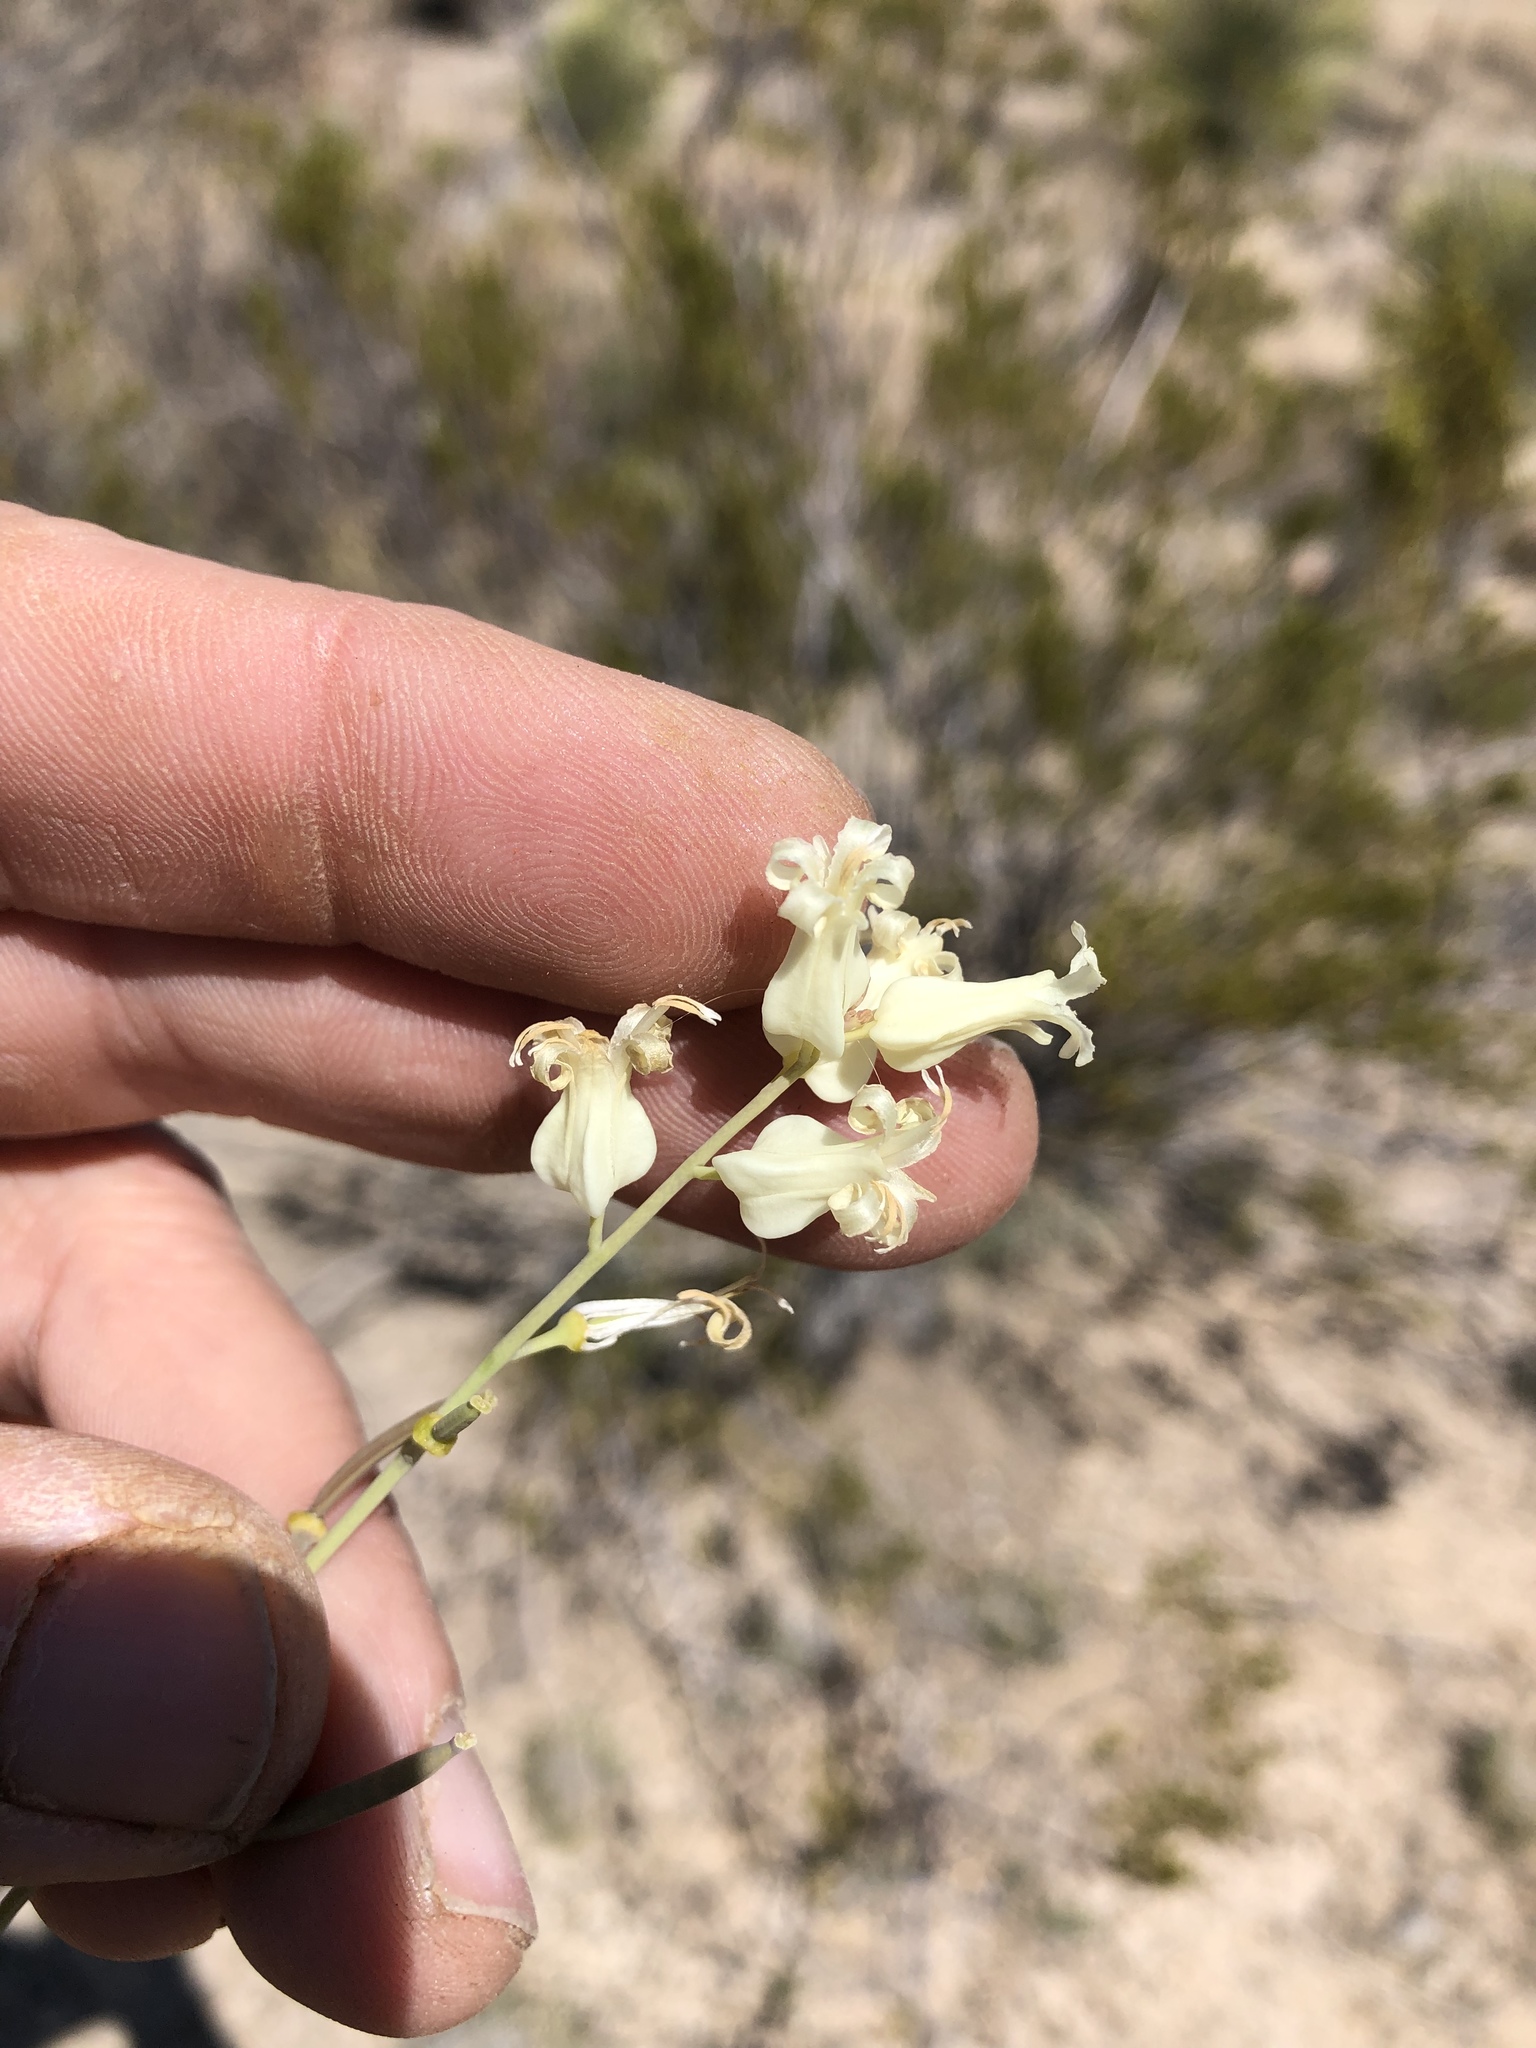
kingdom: Plantae
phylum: Tracheophyta
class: Magnoliopsida
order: Brassicales
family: Brassicaceae
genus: Streptanthus
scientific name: Streptanthus carinatus
